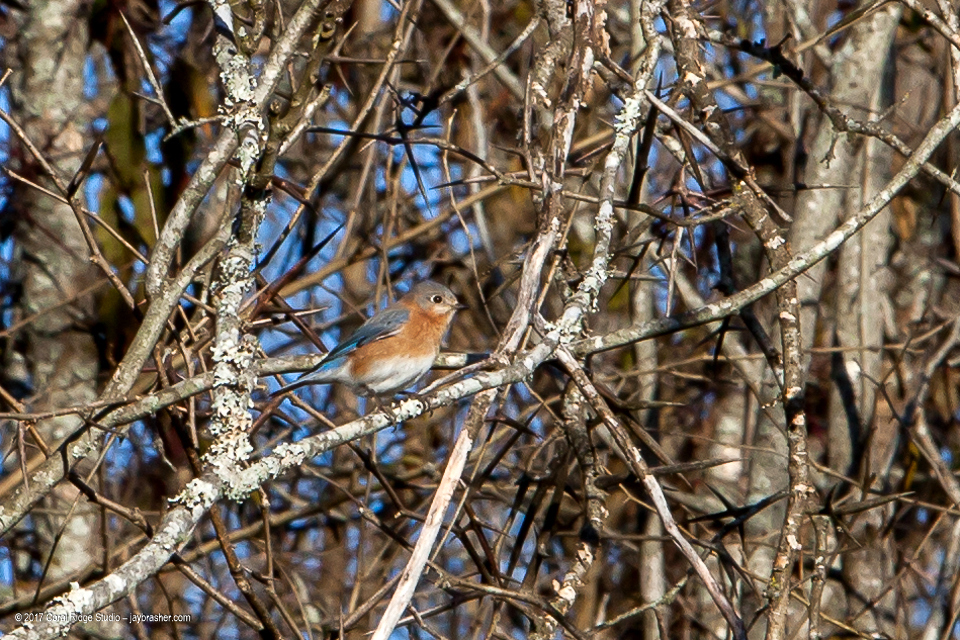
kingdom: Animalia
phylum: Chordata
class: Aves
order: Passeriformes
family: Turdidae
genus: Sialia
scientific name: Sialia sialis
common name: Eastern bluebird
